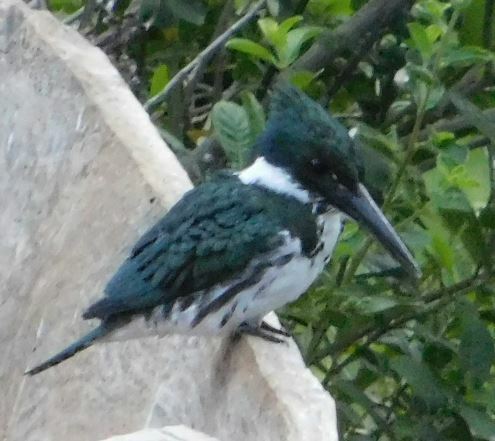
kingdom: Animalia
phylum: Chordata
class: Aves
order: Coraciiformes
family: Alcedinidae
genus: Chloroceryle
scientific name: Chloroceryle amazona
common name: Amazon kingfisher
